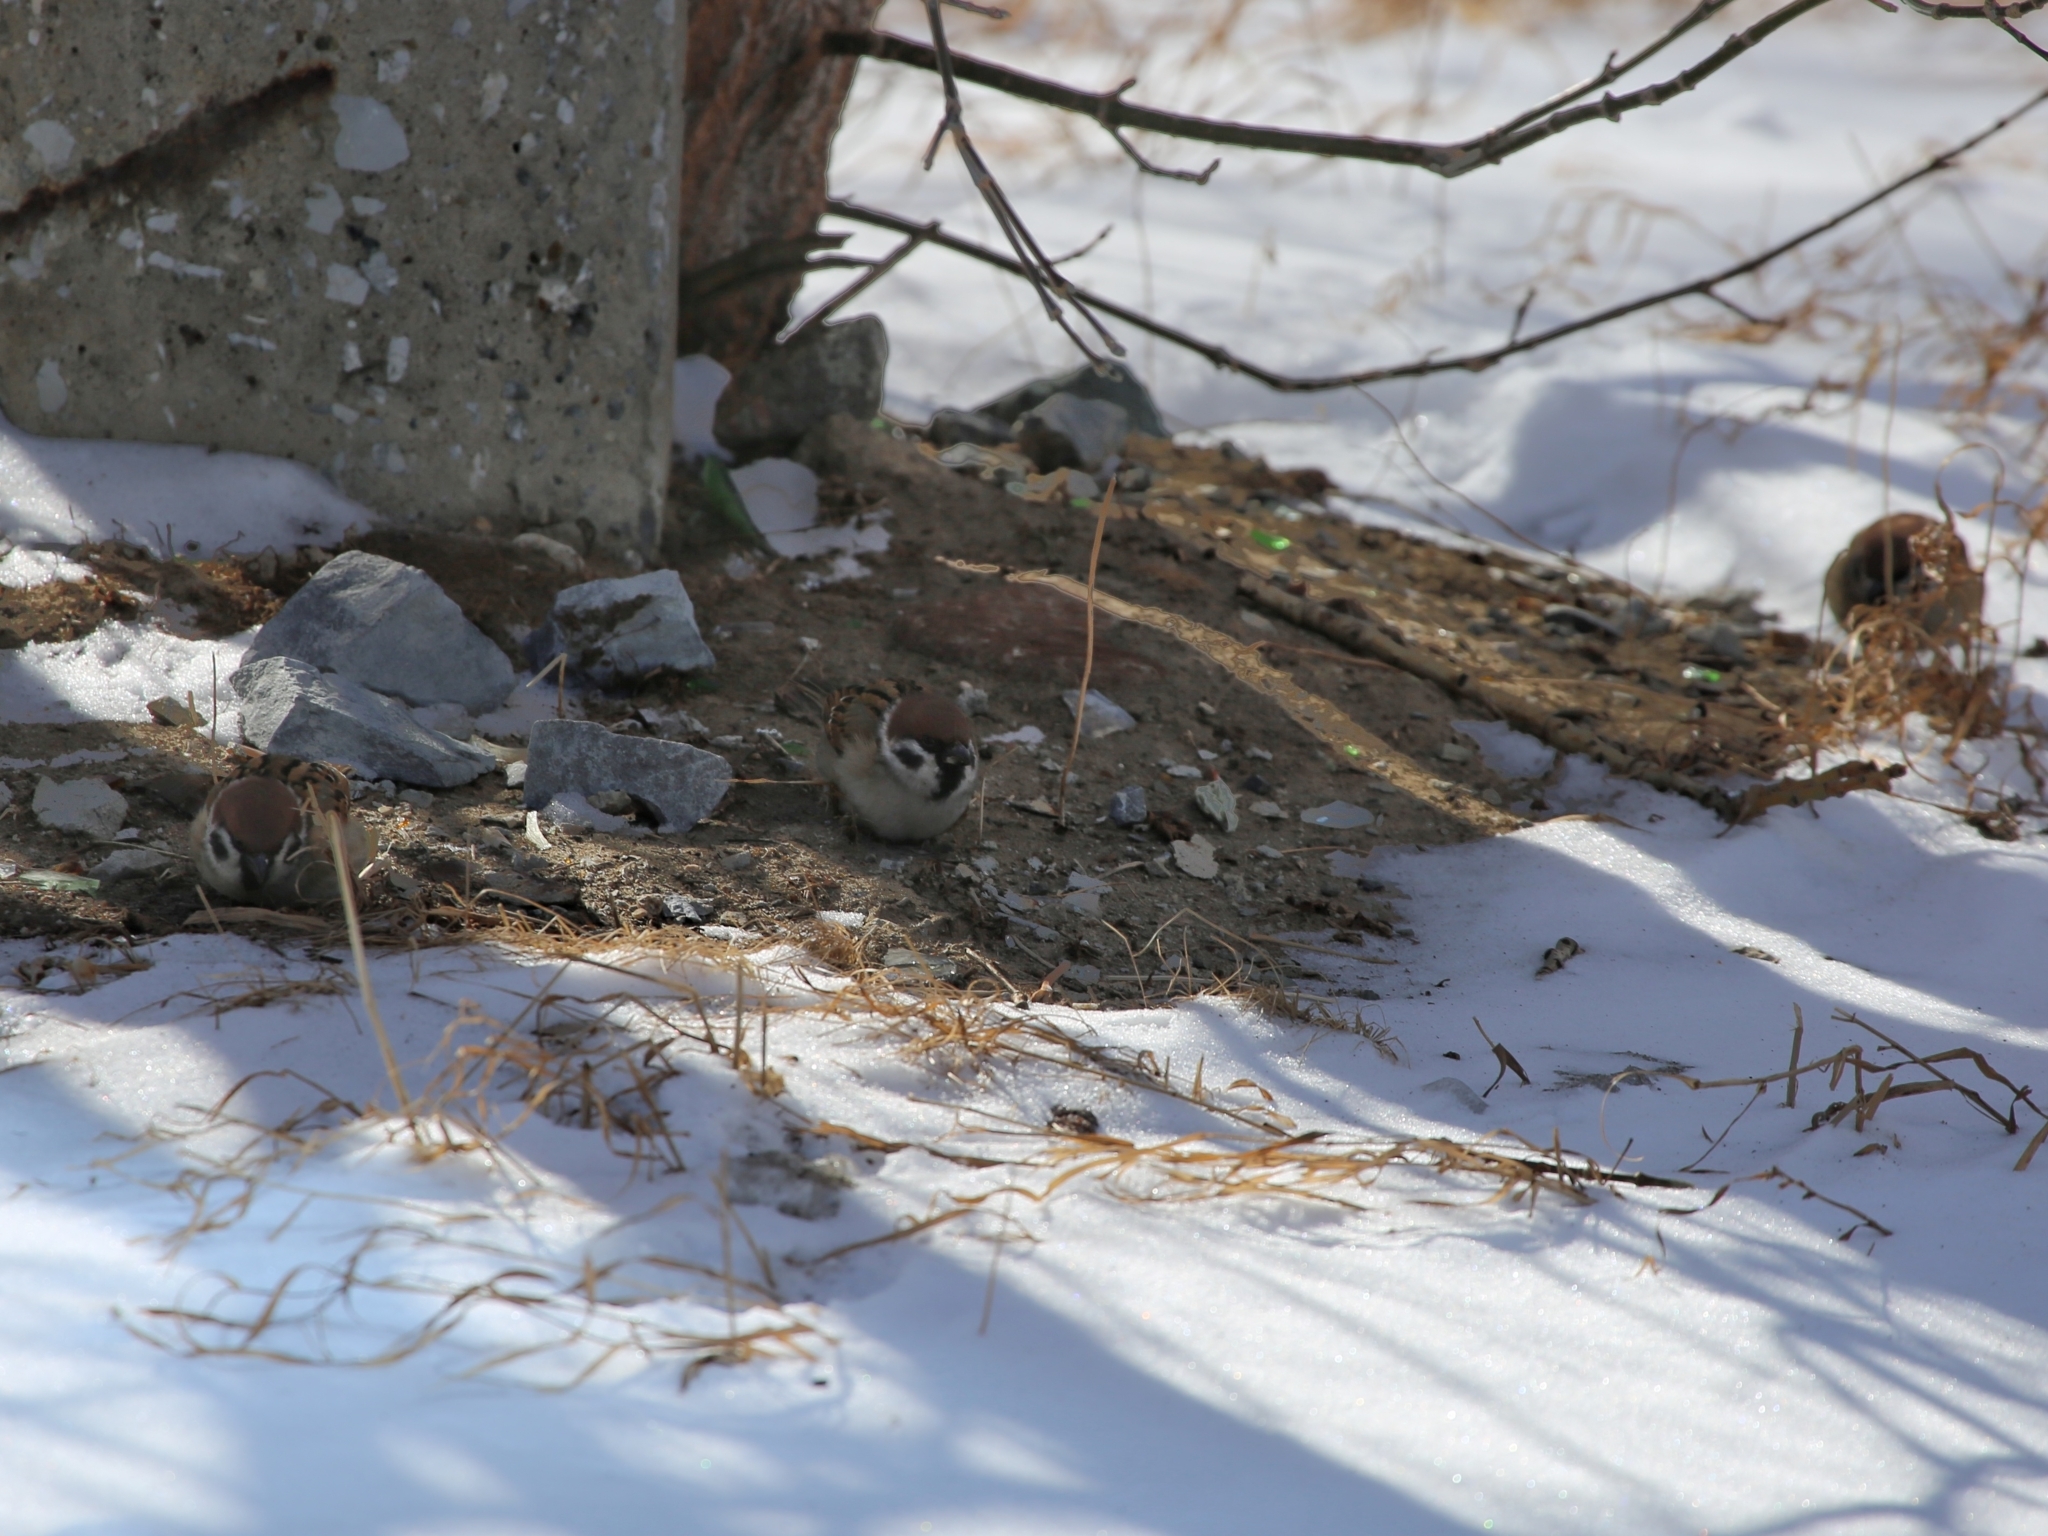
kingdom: Animalia
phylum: Chordata
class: Aves
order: Passeriformes
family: Passeridae
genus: Passer
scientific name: Passer montanus
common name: Eurasian tree sparrow
